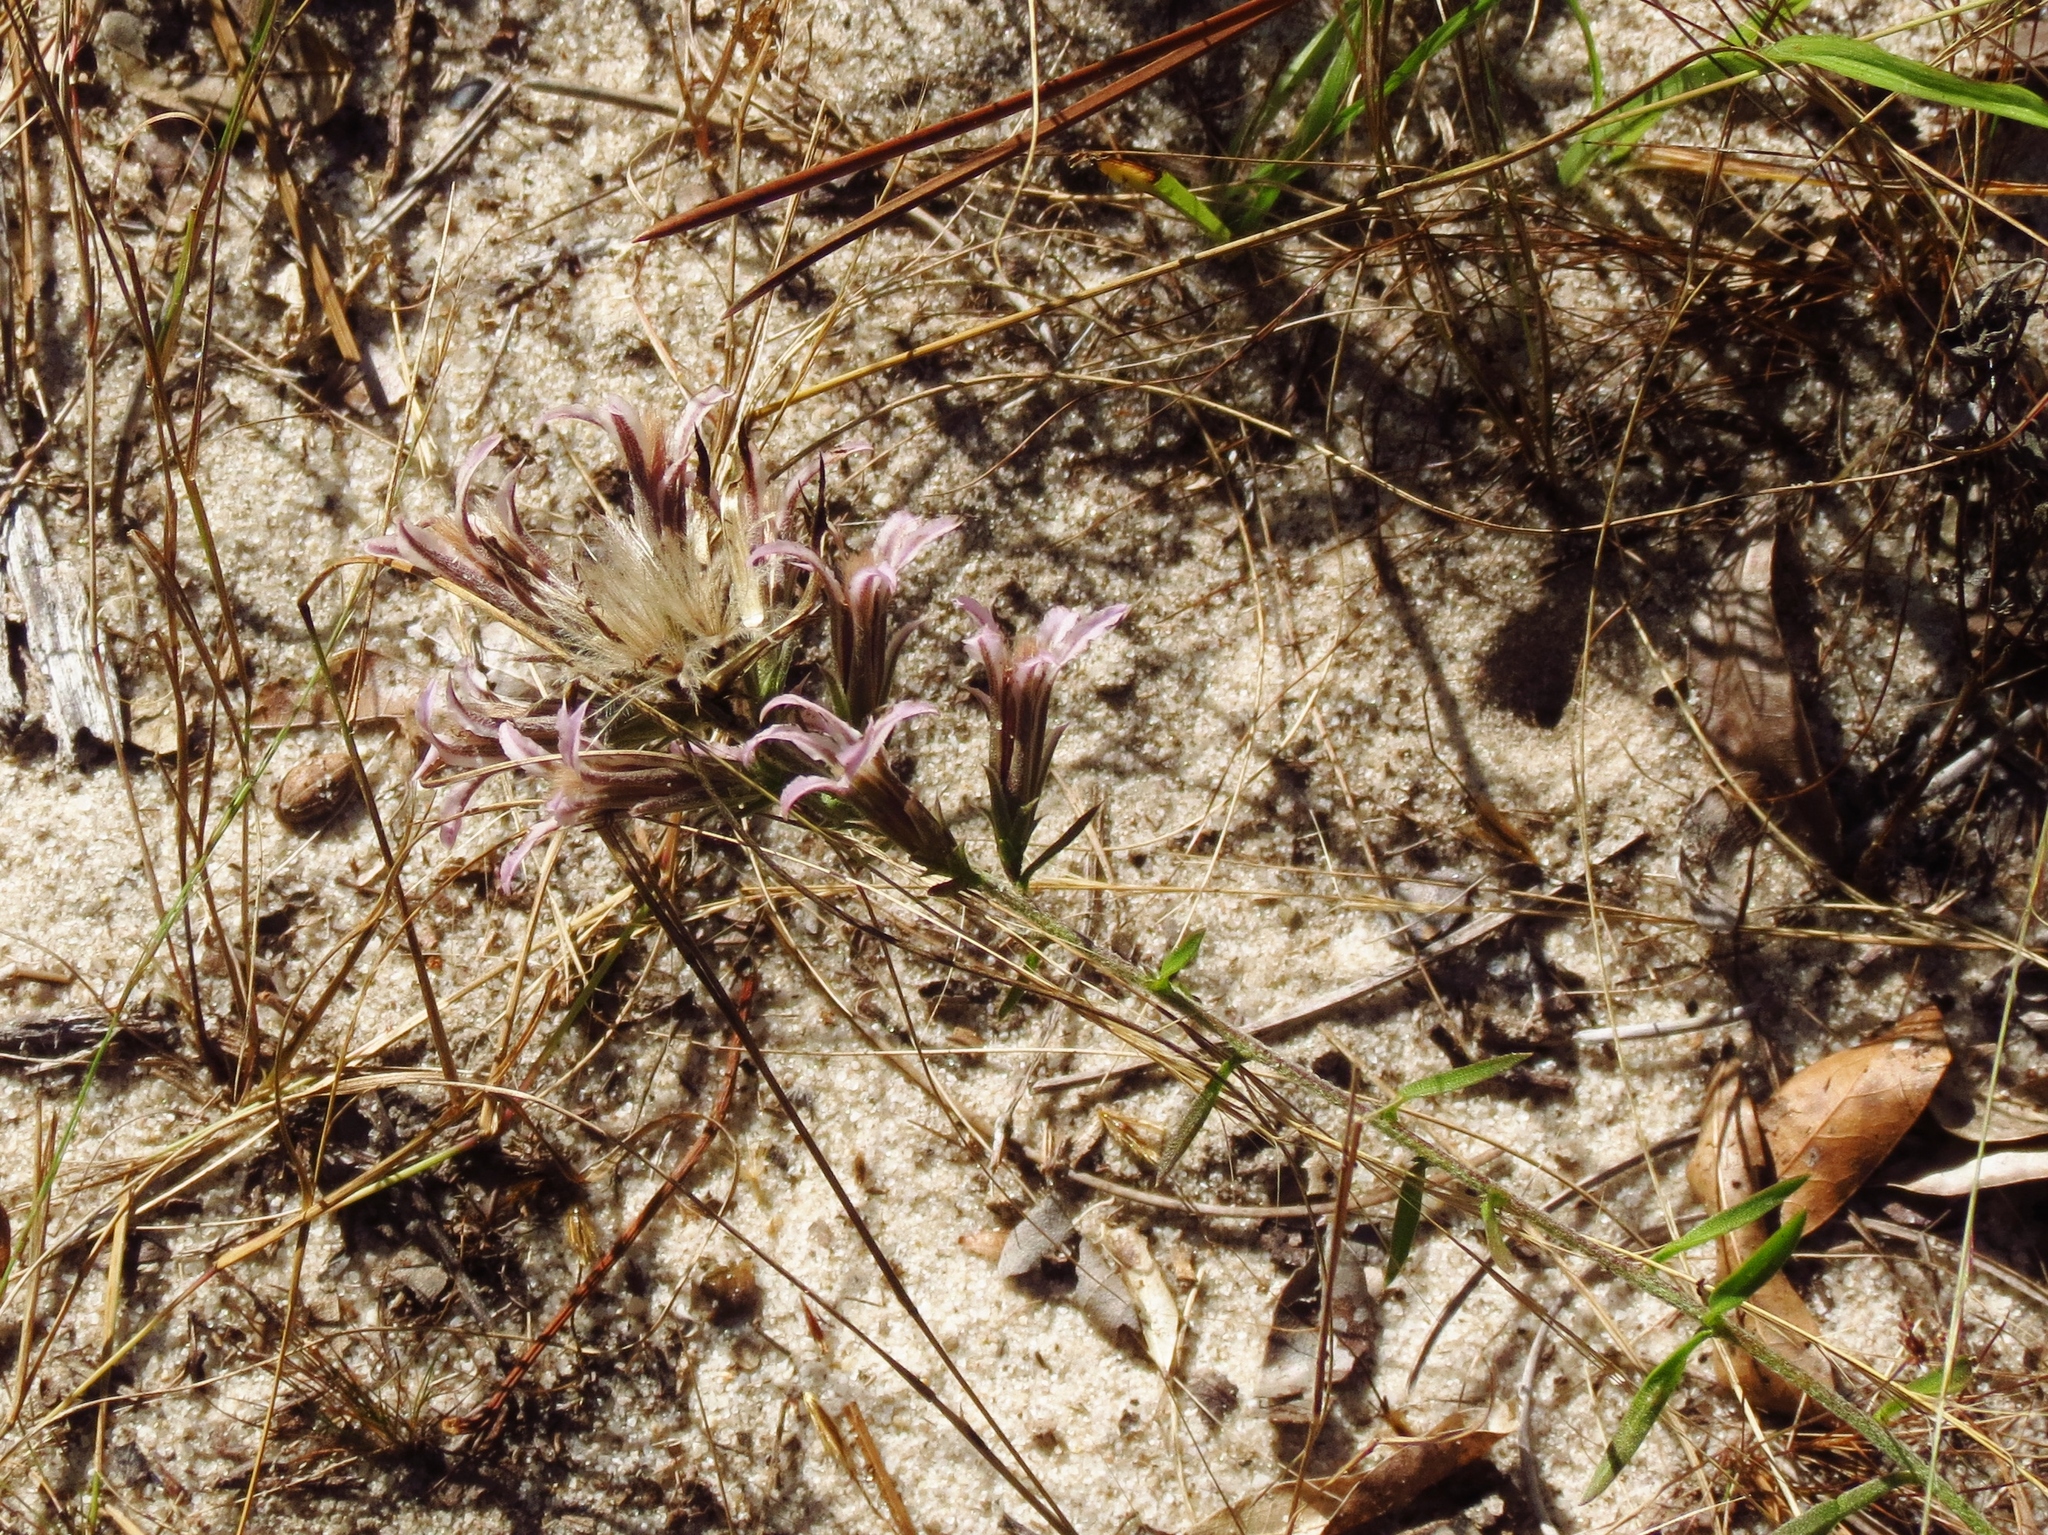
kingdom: Plantae
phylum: Tracheophyta
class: Magnoliopsida
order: Asterales
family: Asteraceae
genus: Liatris
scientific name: Liatris hesperelegans
